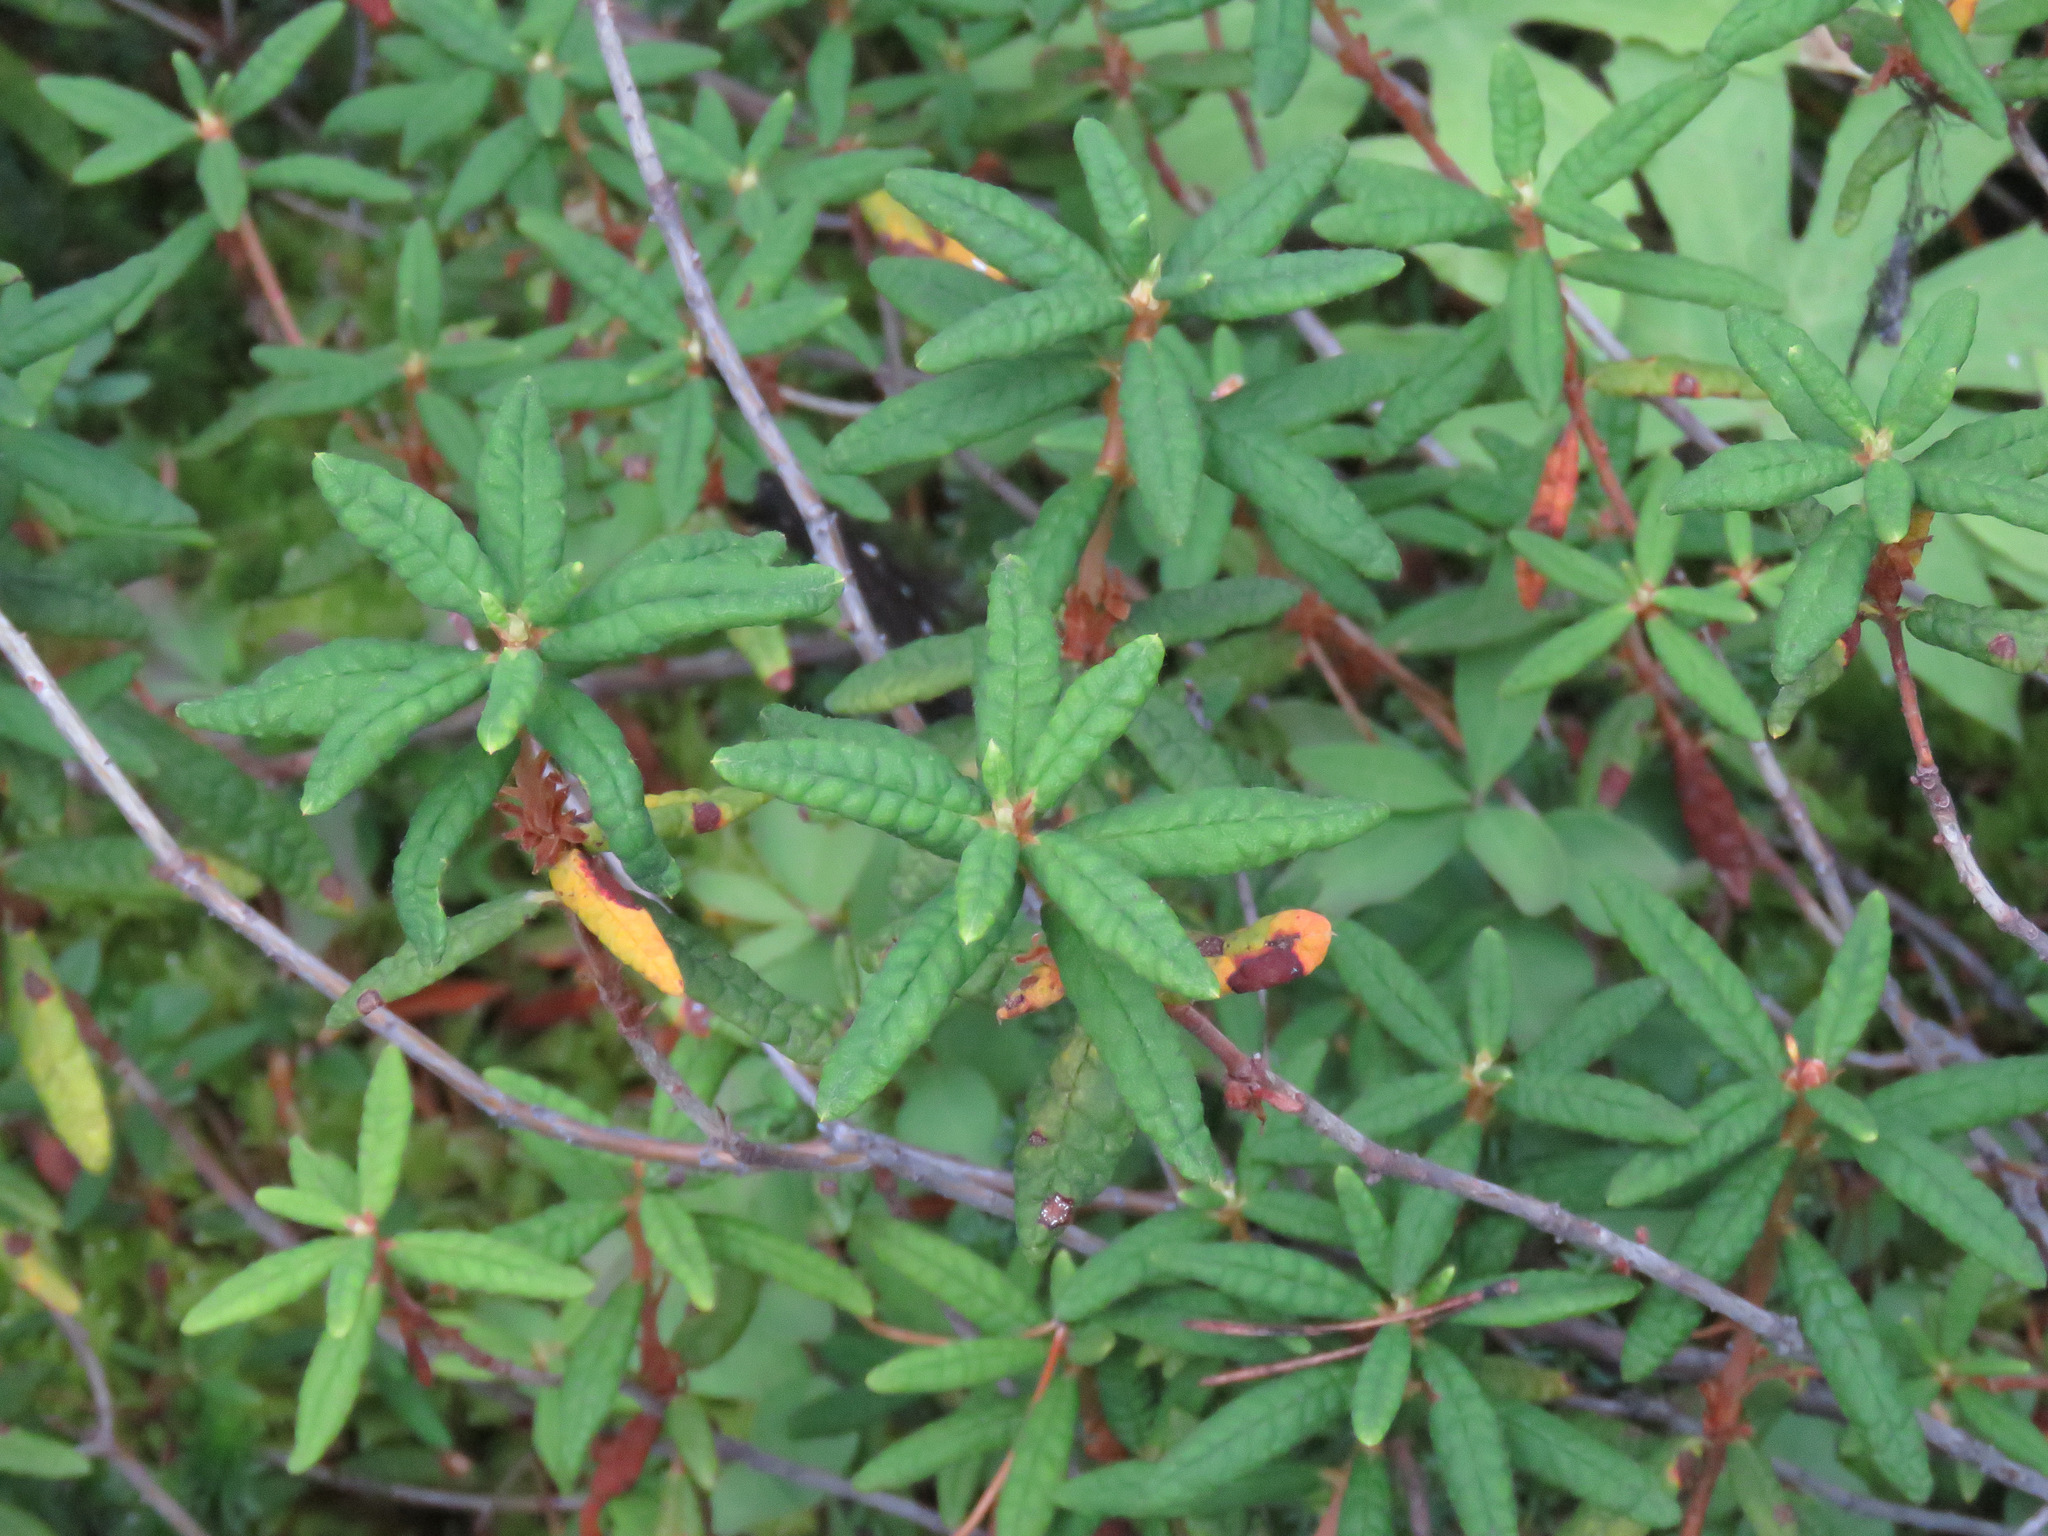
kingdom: Plantae
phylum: Tracheophyta
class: Magnoliopsida
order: Ericales
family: Ericaceae
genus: Rhododendron
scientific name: Rhododendron groenlandicum
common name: Bog labrador tea
